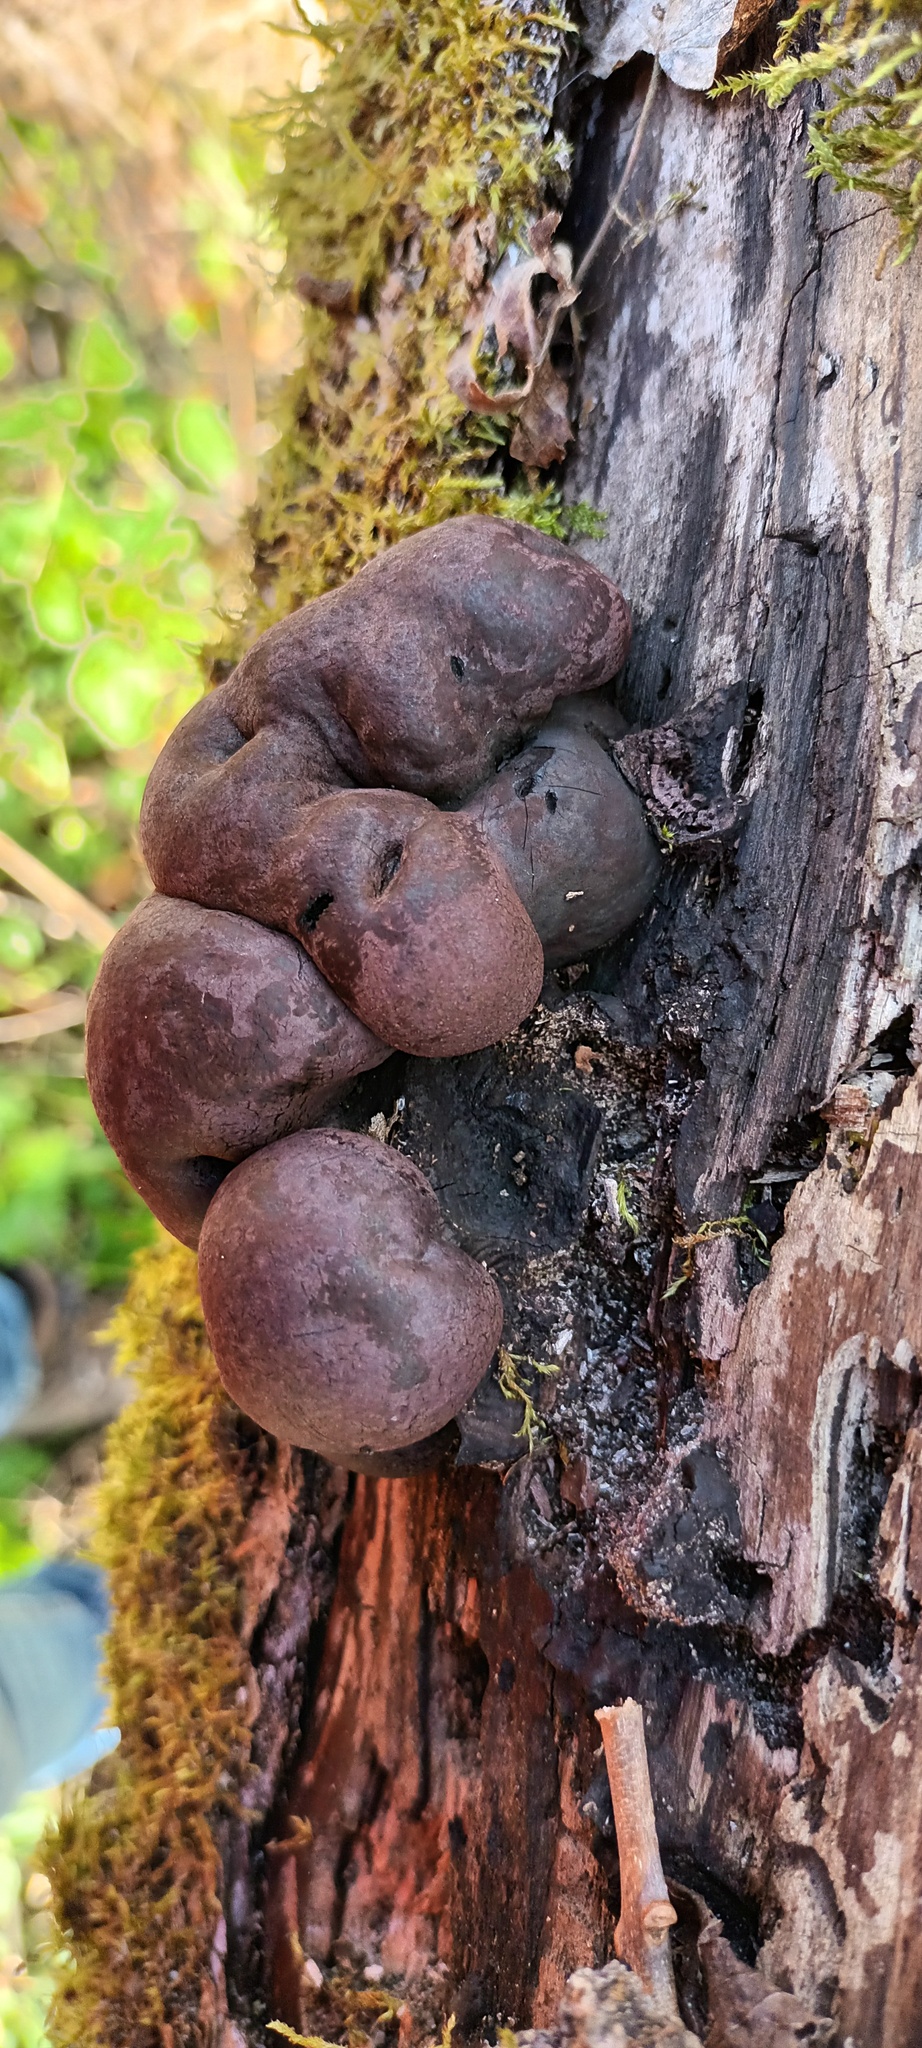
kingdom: Fungi
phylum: Ascomycota
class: Sordariomycetes
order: Xylariales
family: Hypoxylaceae
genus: Daldinia
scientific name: Daldinia concentrica
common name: Cramp balls
